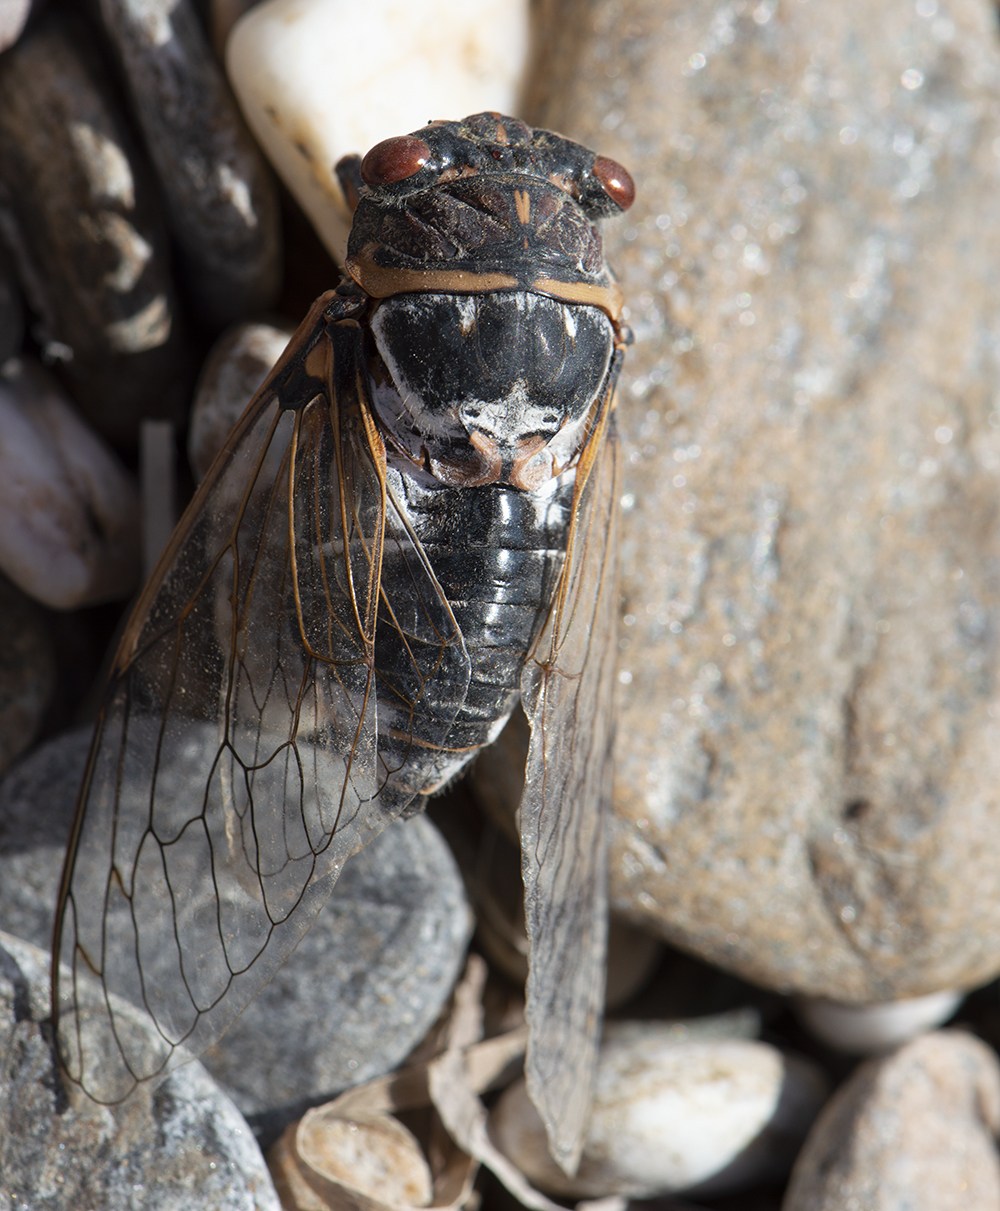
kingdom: Animalia
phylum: Arthropoda
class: Insecta
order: Hemiptera
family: Cicadidae
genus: Lyristes
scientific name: Lyristes plebejus
